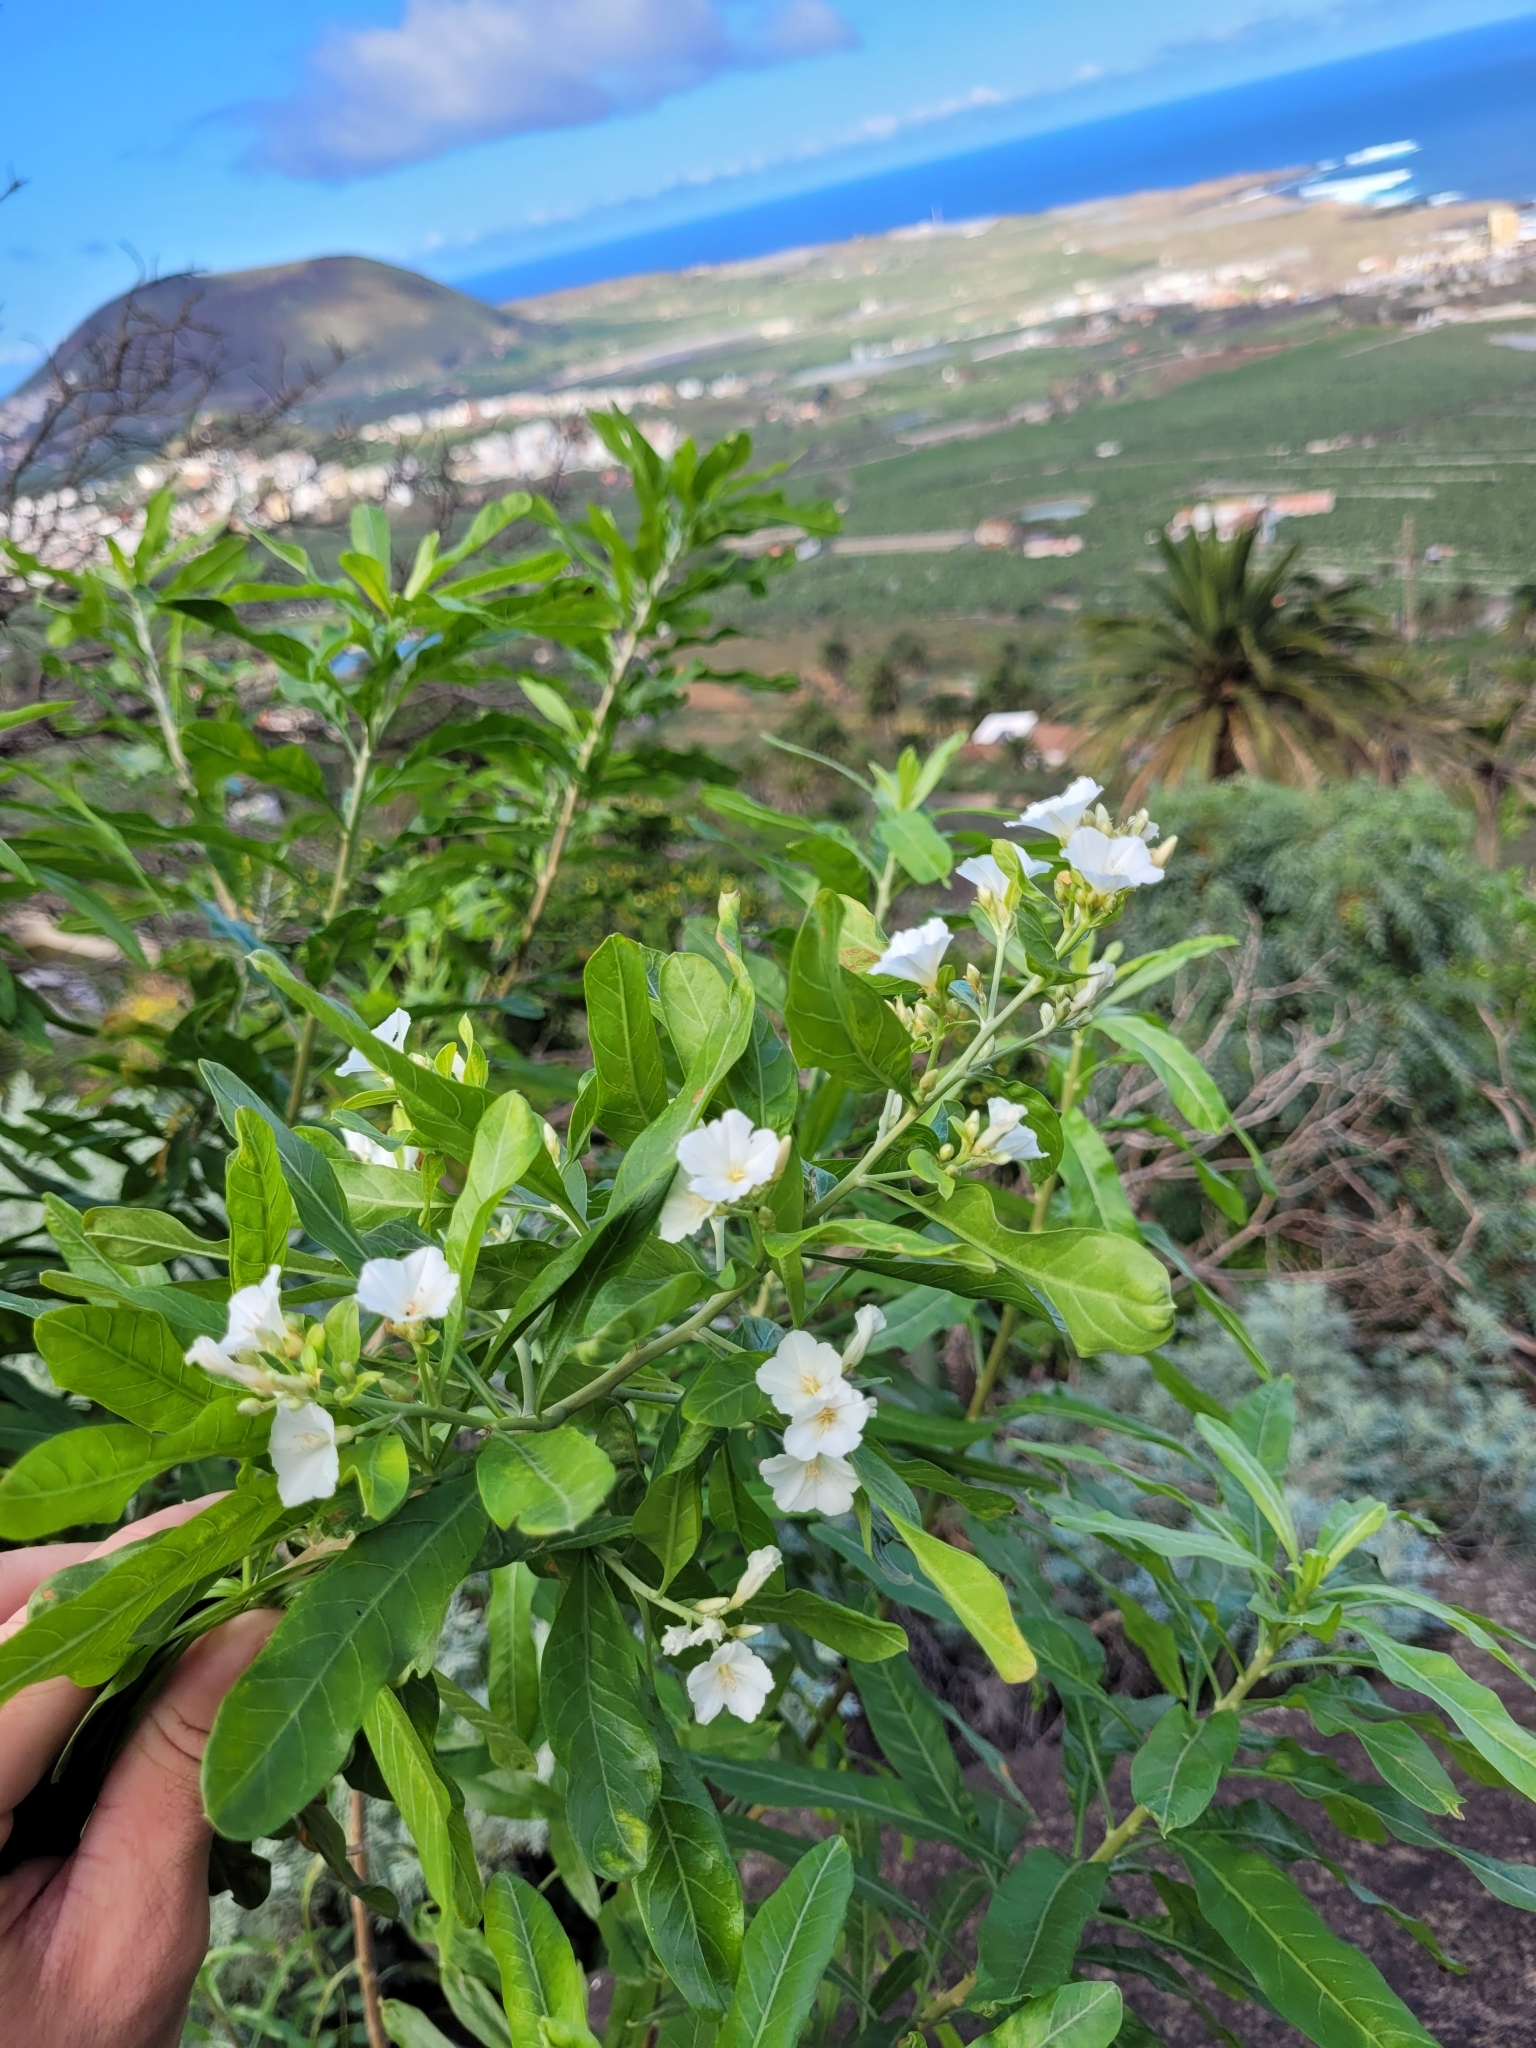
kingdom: Plantae
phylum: Tracheophyta
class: Magnoliopsida
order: Solanales
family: Convolvulaceae
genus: Convolvulus
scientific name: Convolvulus floridus
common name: Guadil
